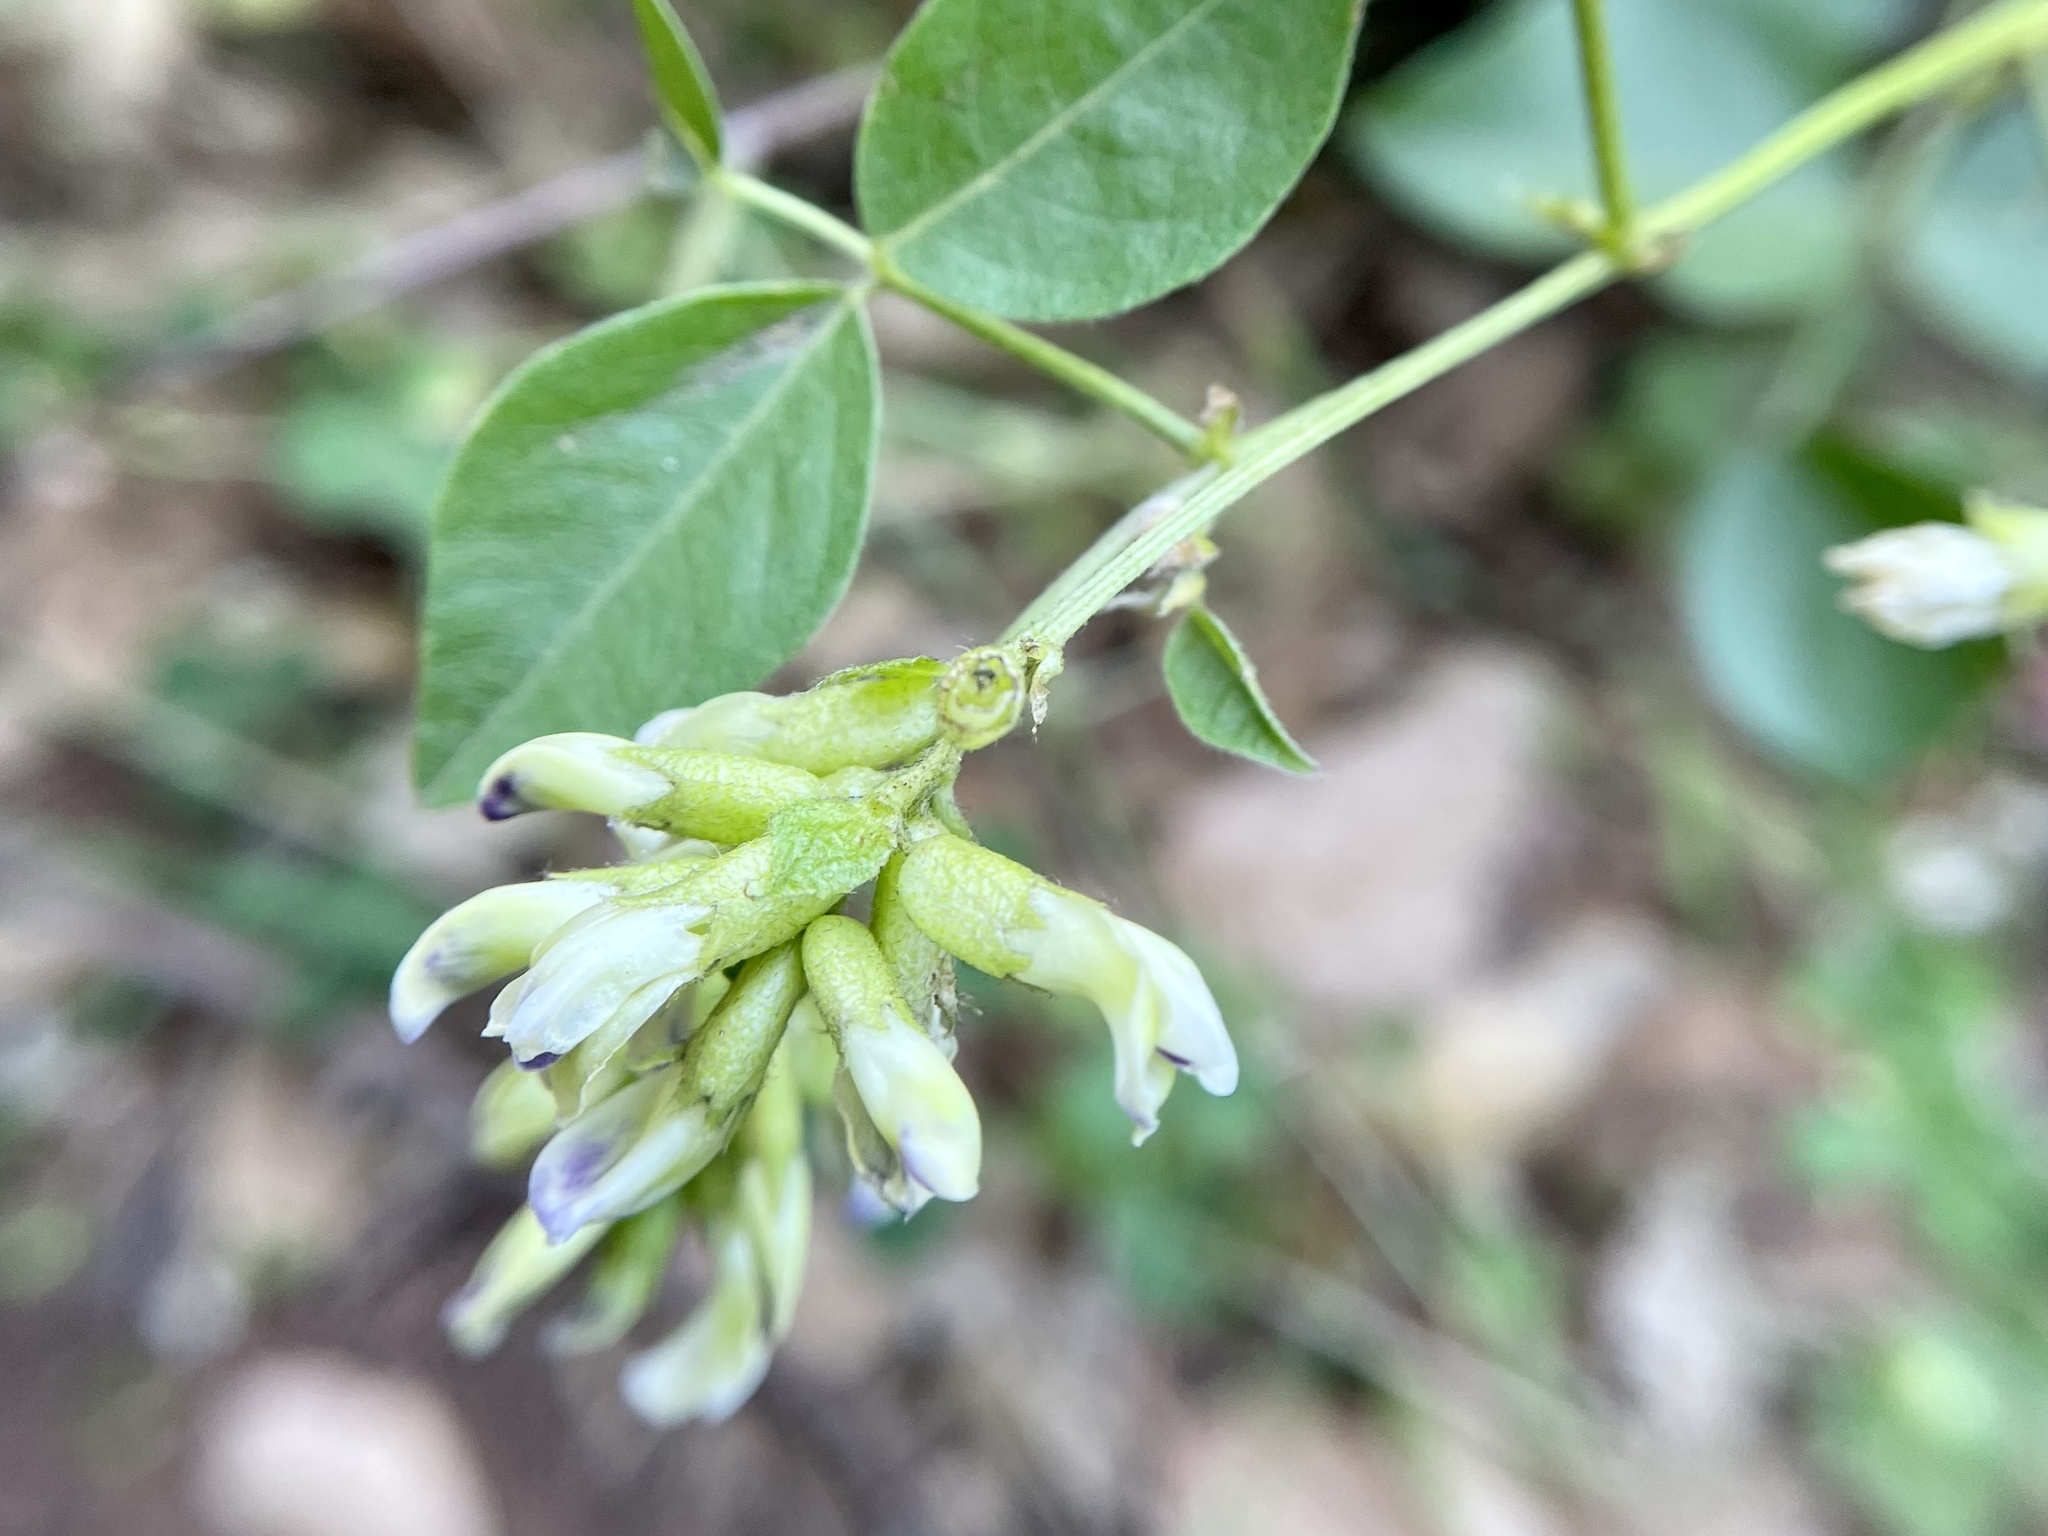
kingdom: Plantae
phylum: Tracheophyta
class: Magnoliopsida
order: Fabales
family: Fabaceae
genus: Rupertia
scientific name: Rupertia physodes
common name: California-tea
